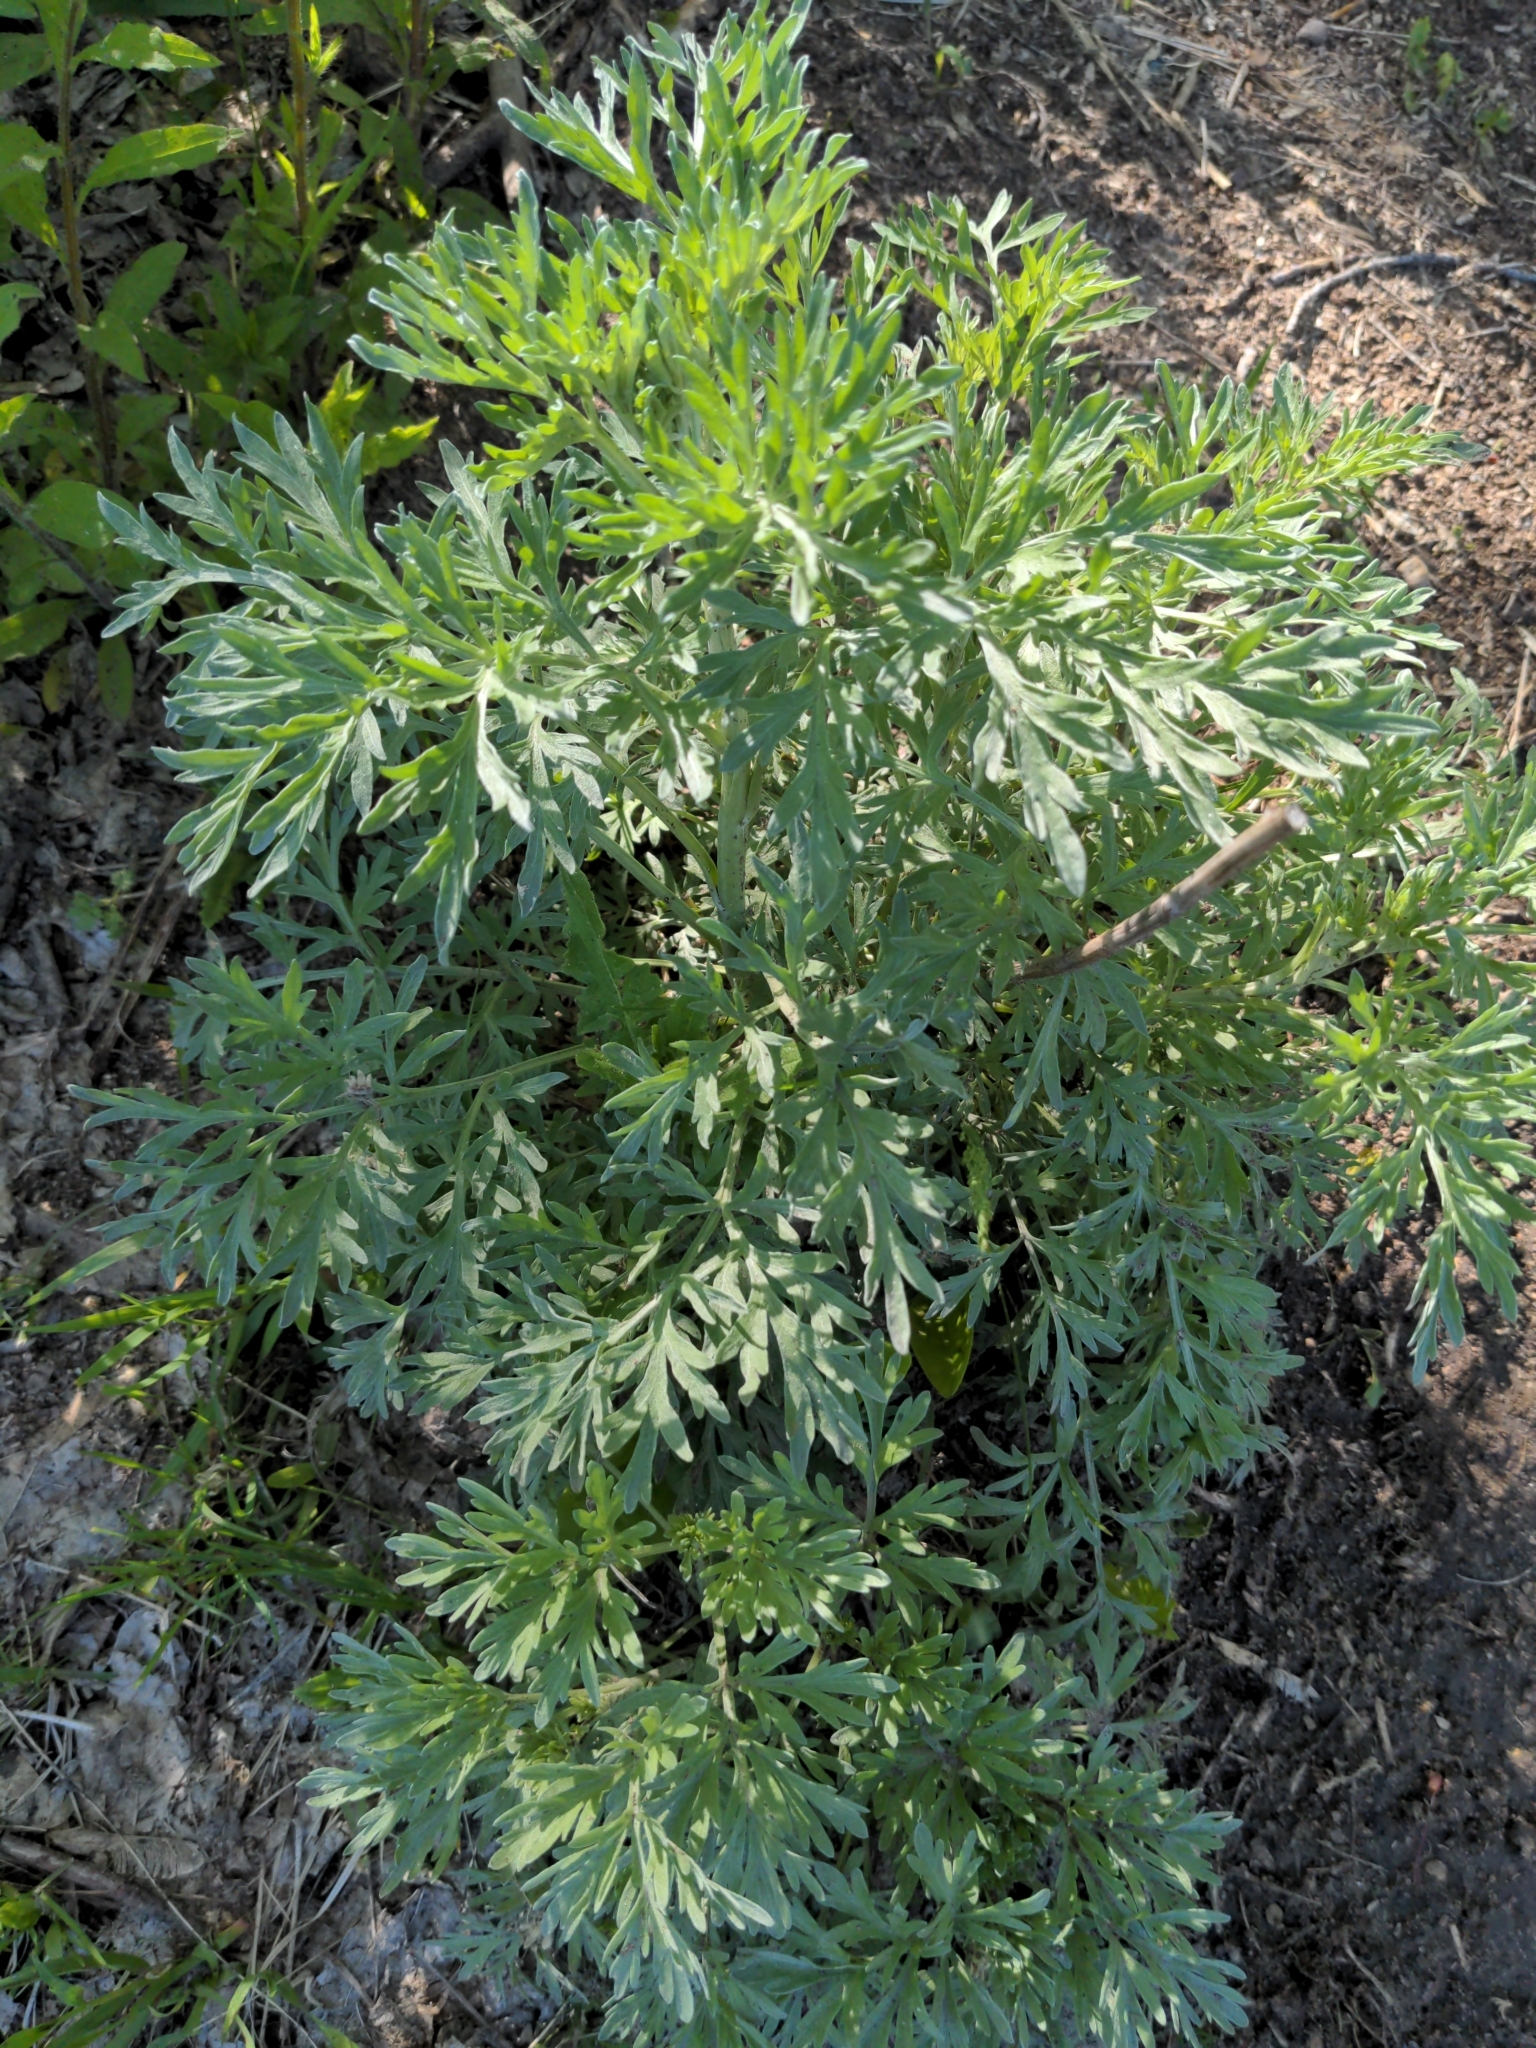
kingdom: Plantae
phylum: Tracheophyta
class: Magnoliopsida
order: Asterales
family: Asteraceae
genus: Artemisia
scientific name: Artemisia absinthium
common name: Wormwood
